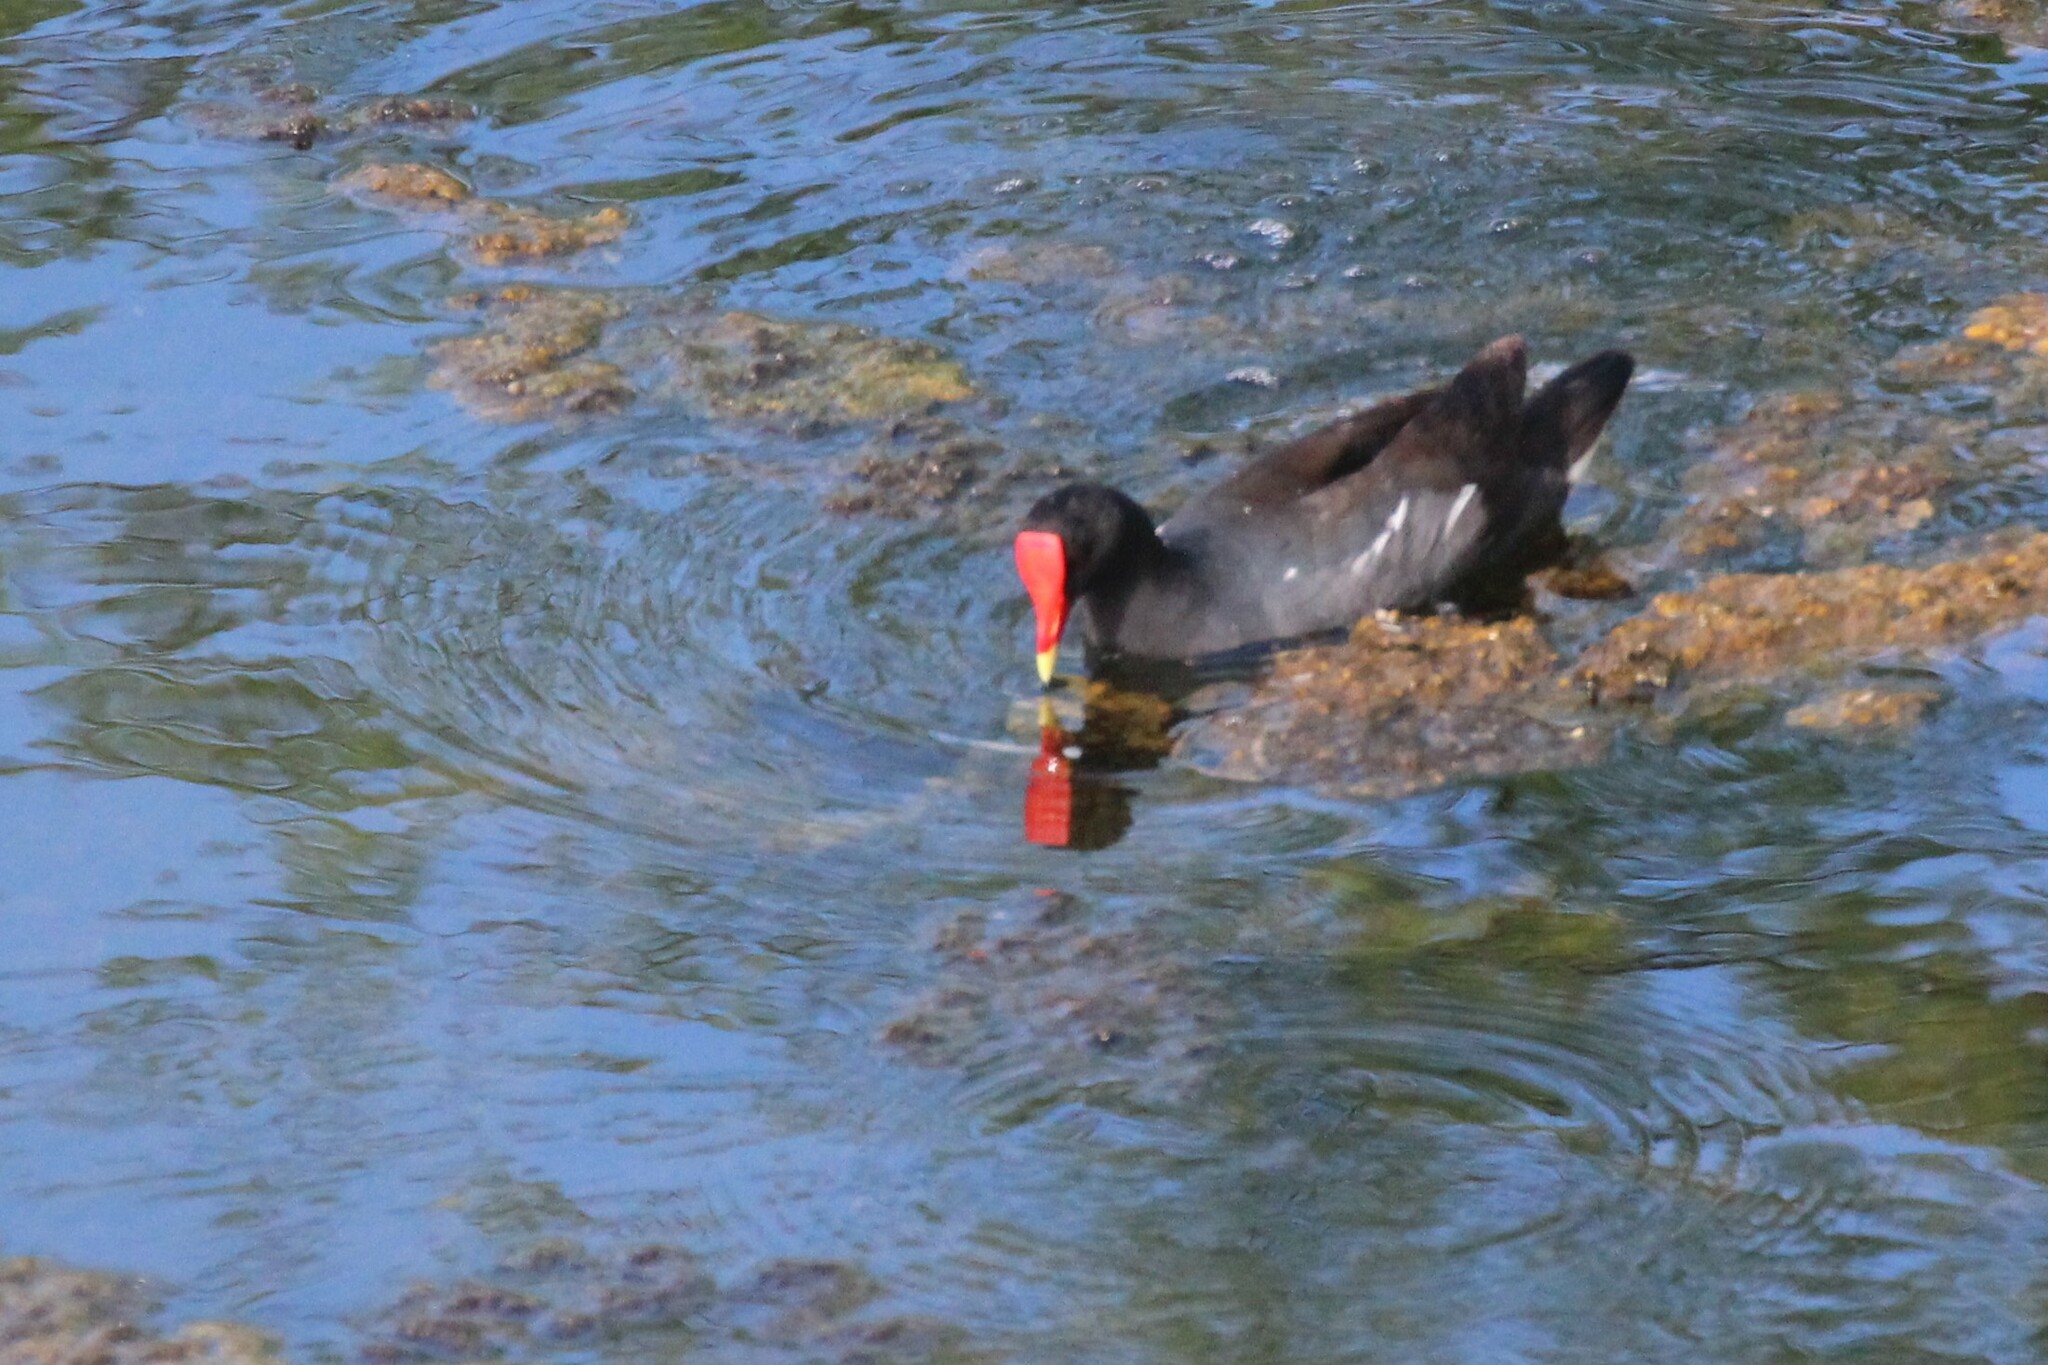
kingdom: Animalia
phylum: Chordata
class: Aves
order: Gruiformes
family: Rallidae
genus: Gallinula
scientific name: Gallinula chloropus
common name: Common moorhen
